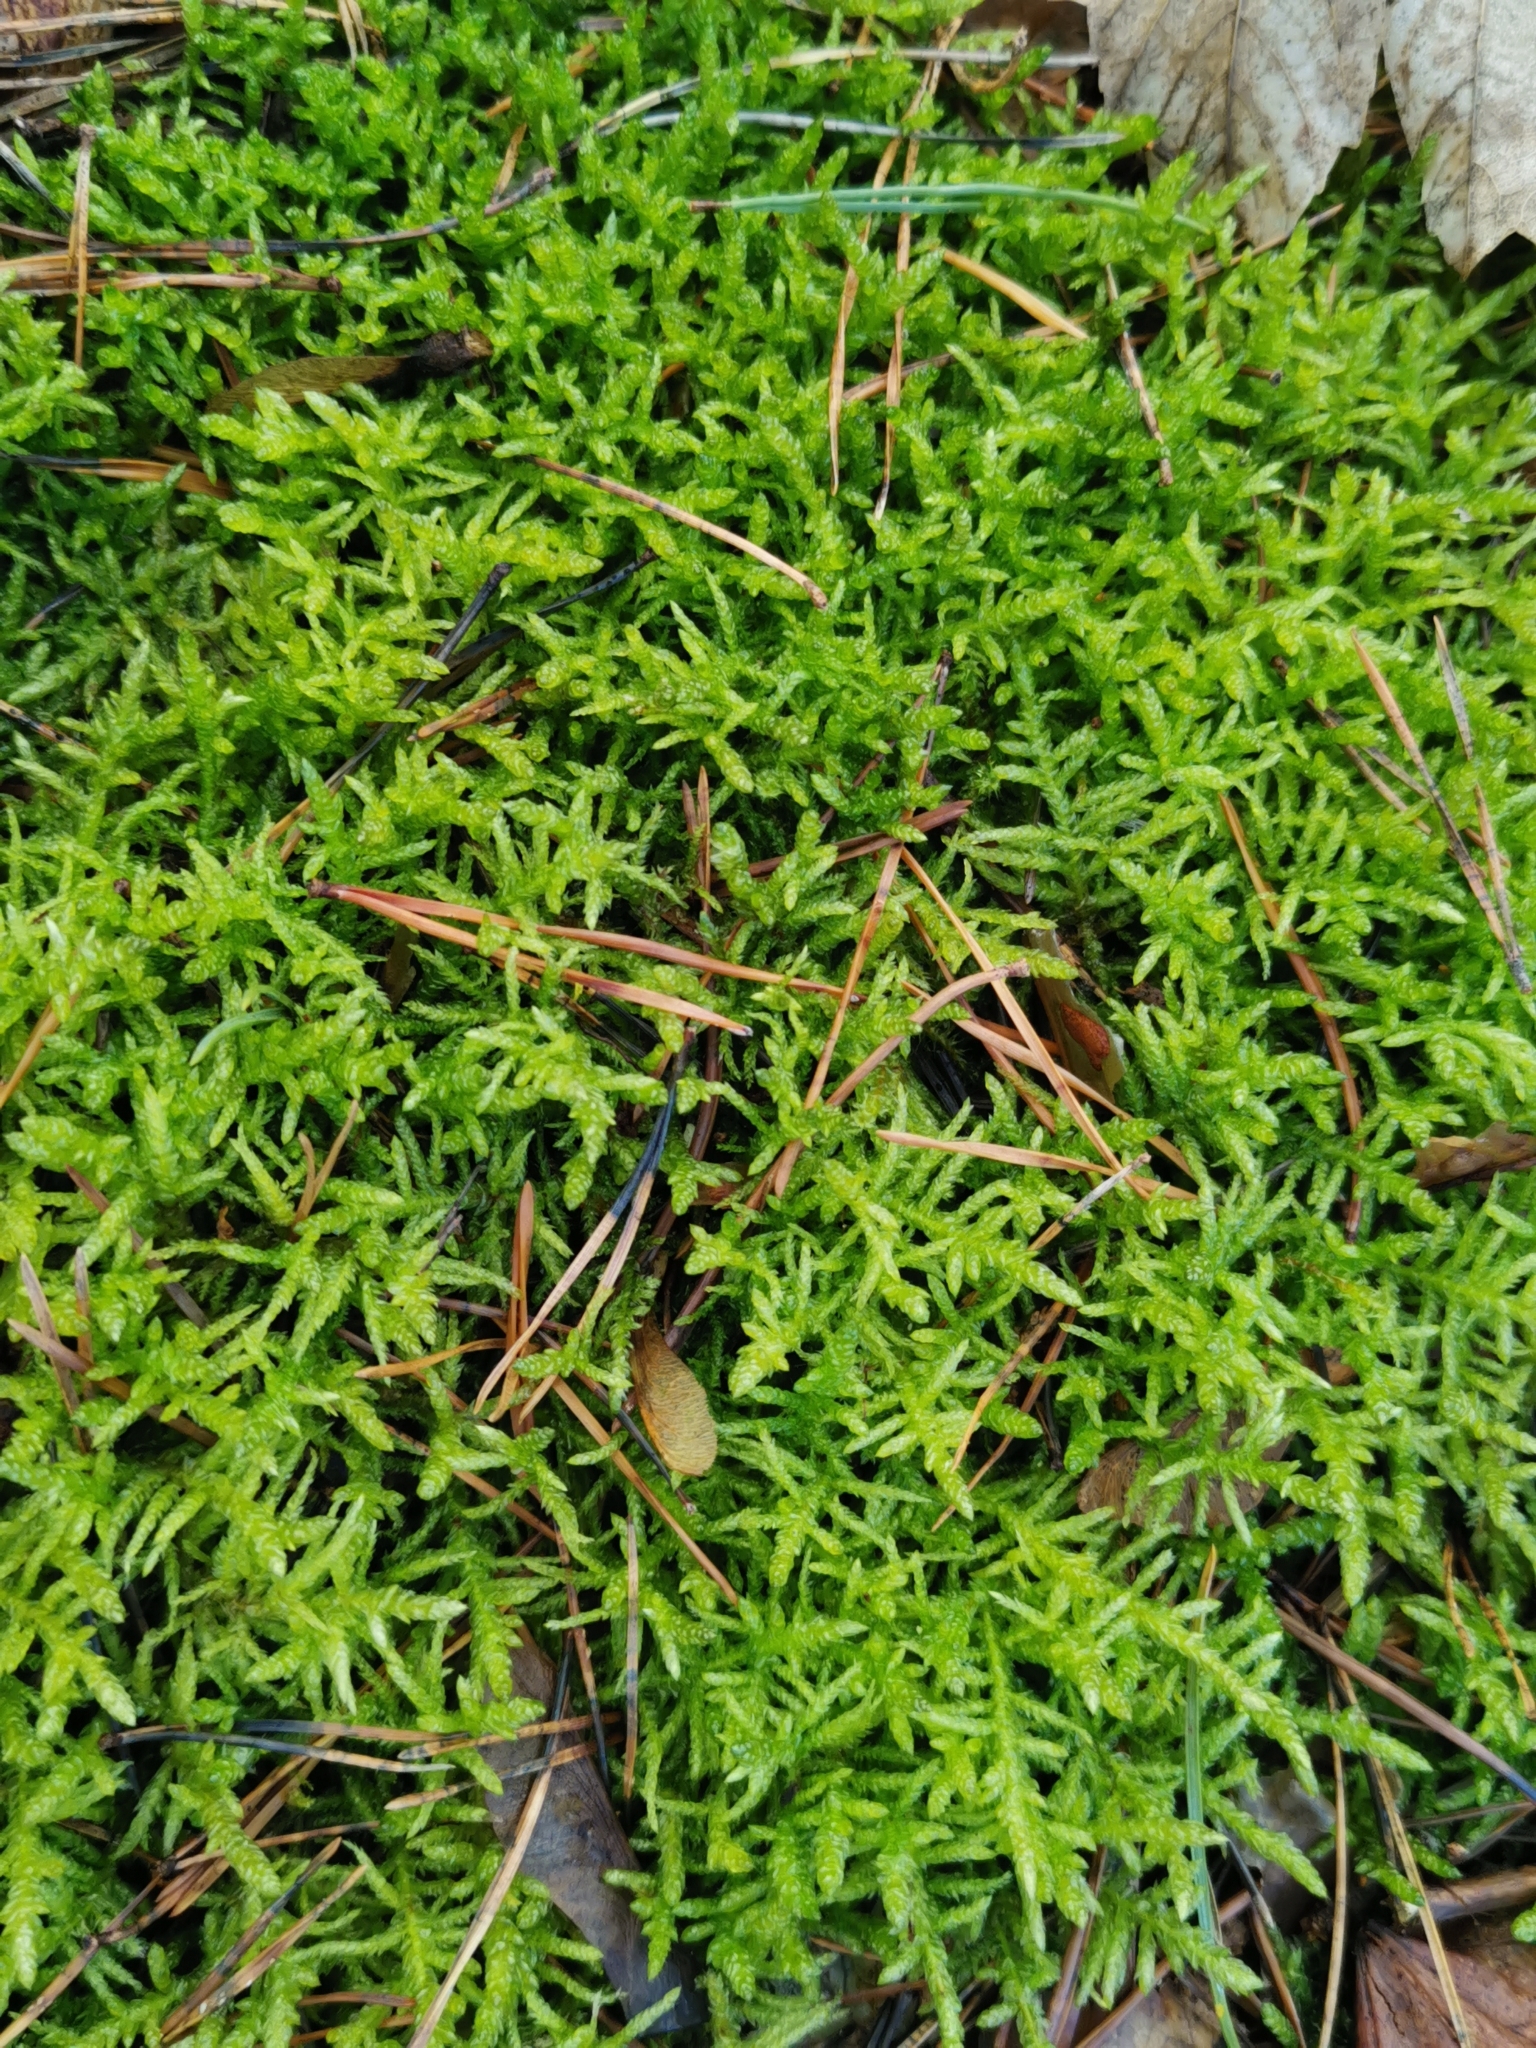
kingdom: Plantae
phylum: Bryophyta
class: Bryopsida
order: Hypnales
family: Brachytheciaceae
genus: Pseudoscleropodium
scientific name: Pseudoscleropodium purum
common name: Neat feather-moss
